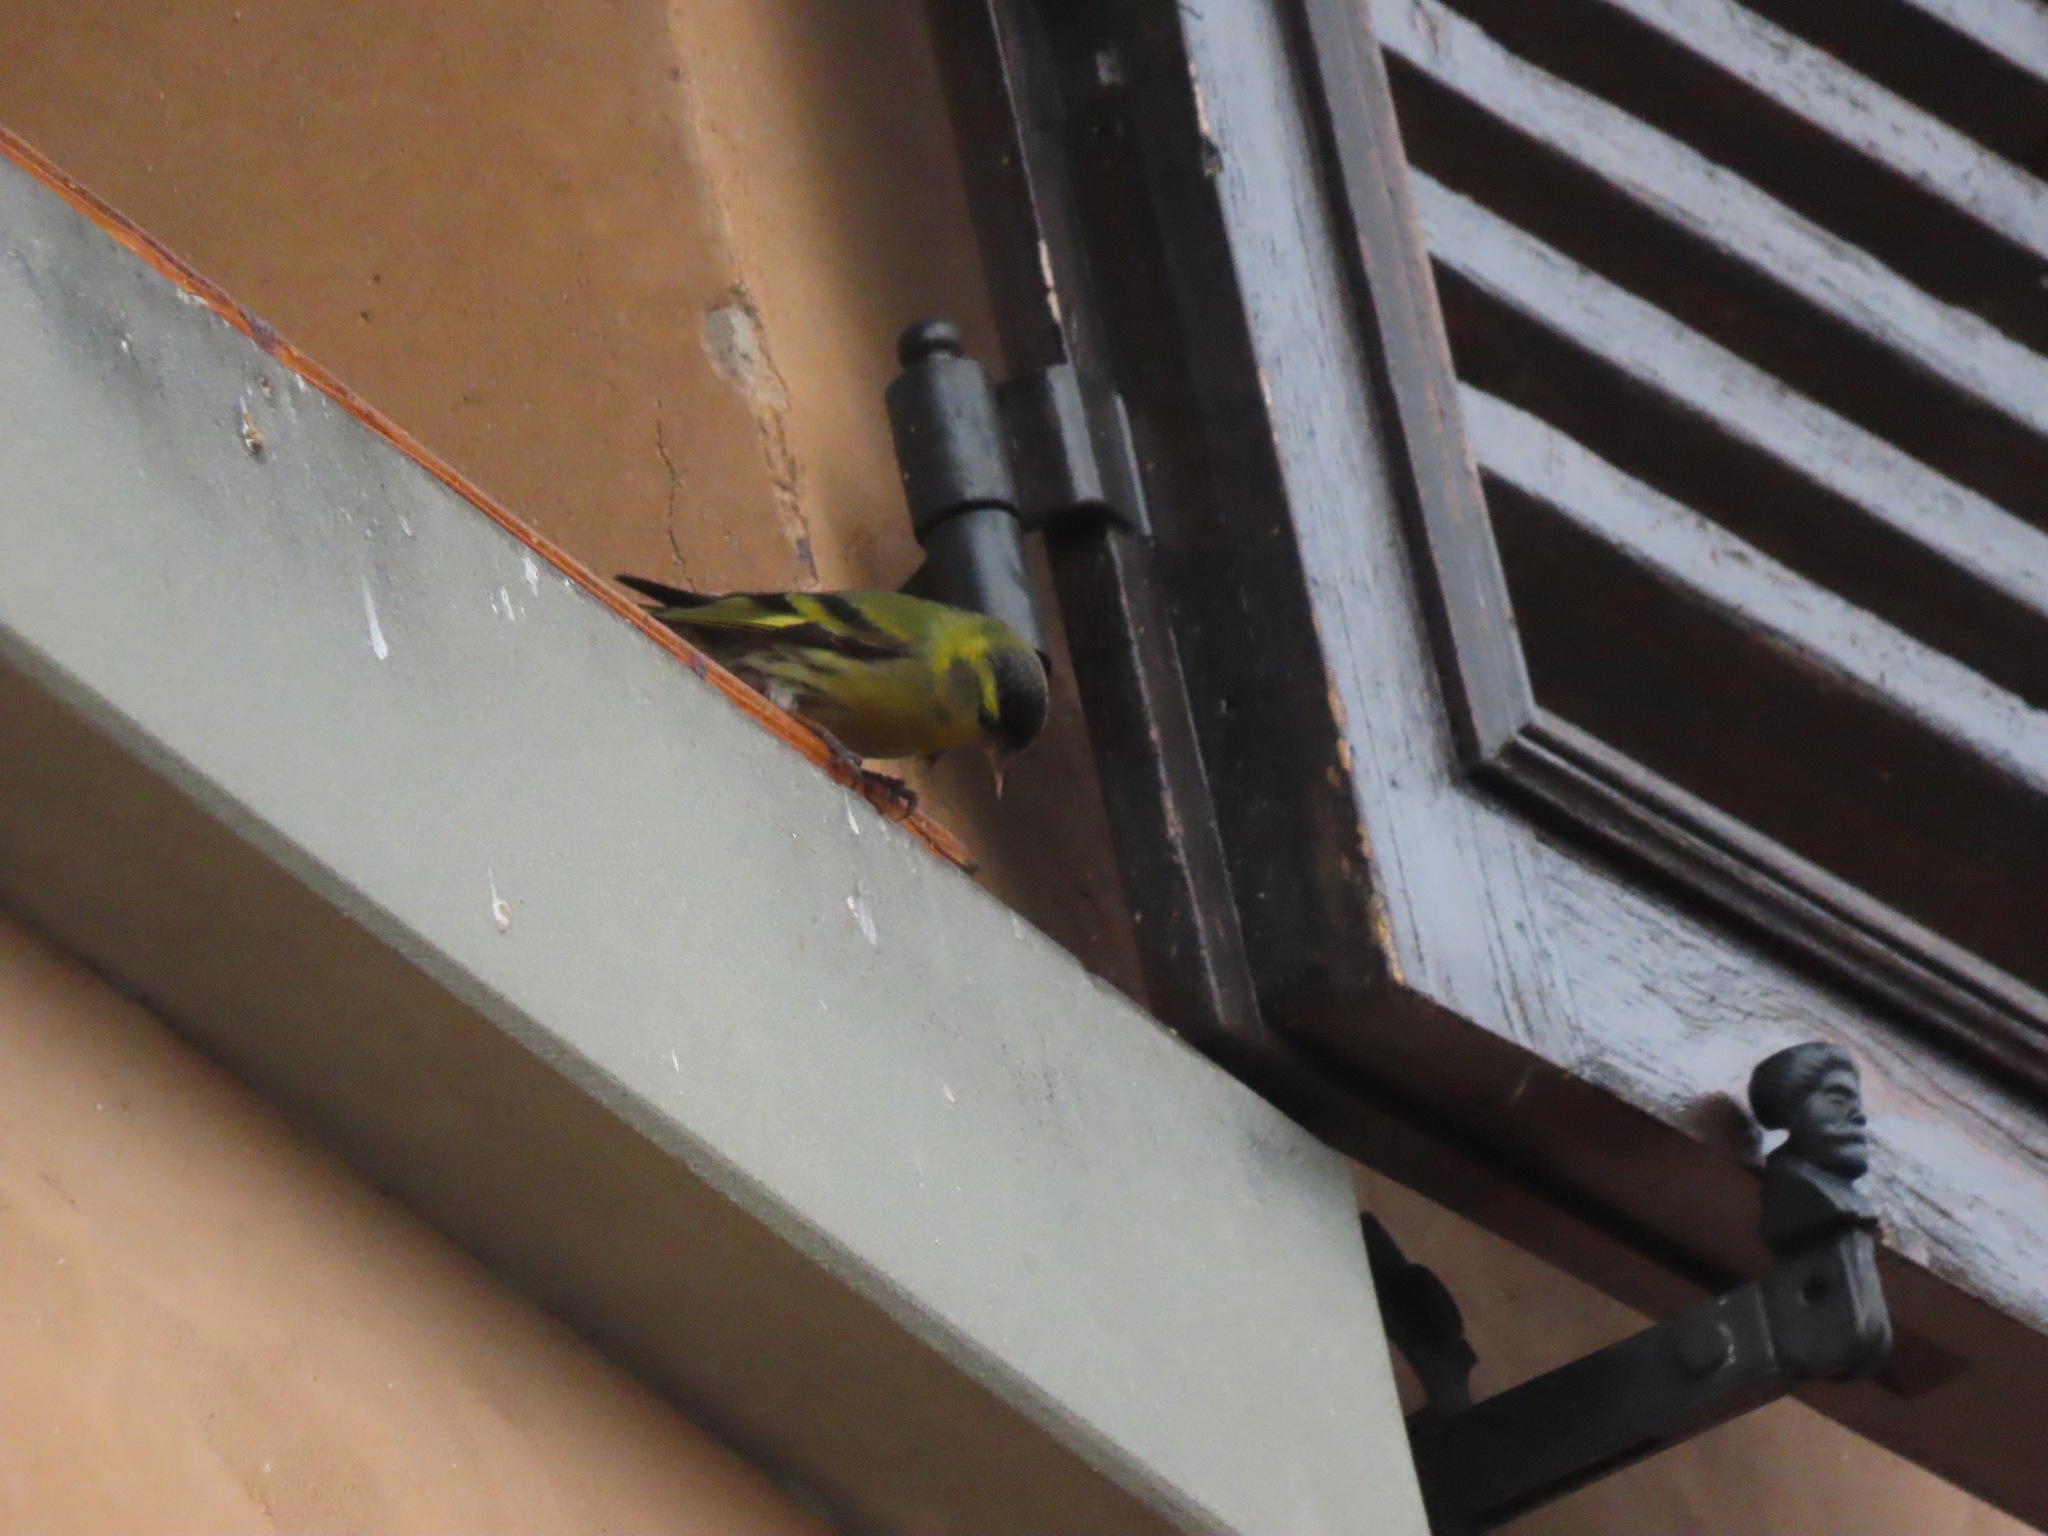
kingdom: Animalia
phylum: Chordata
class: Aves
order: Passeriformes
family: Fringillidae
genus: Spinus
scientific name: Spinus spinus
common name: Eurasian siskin
